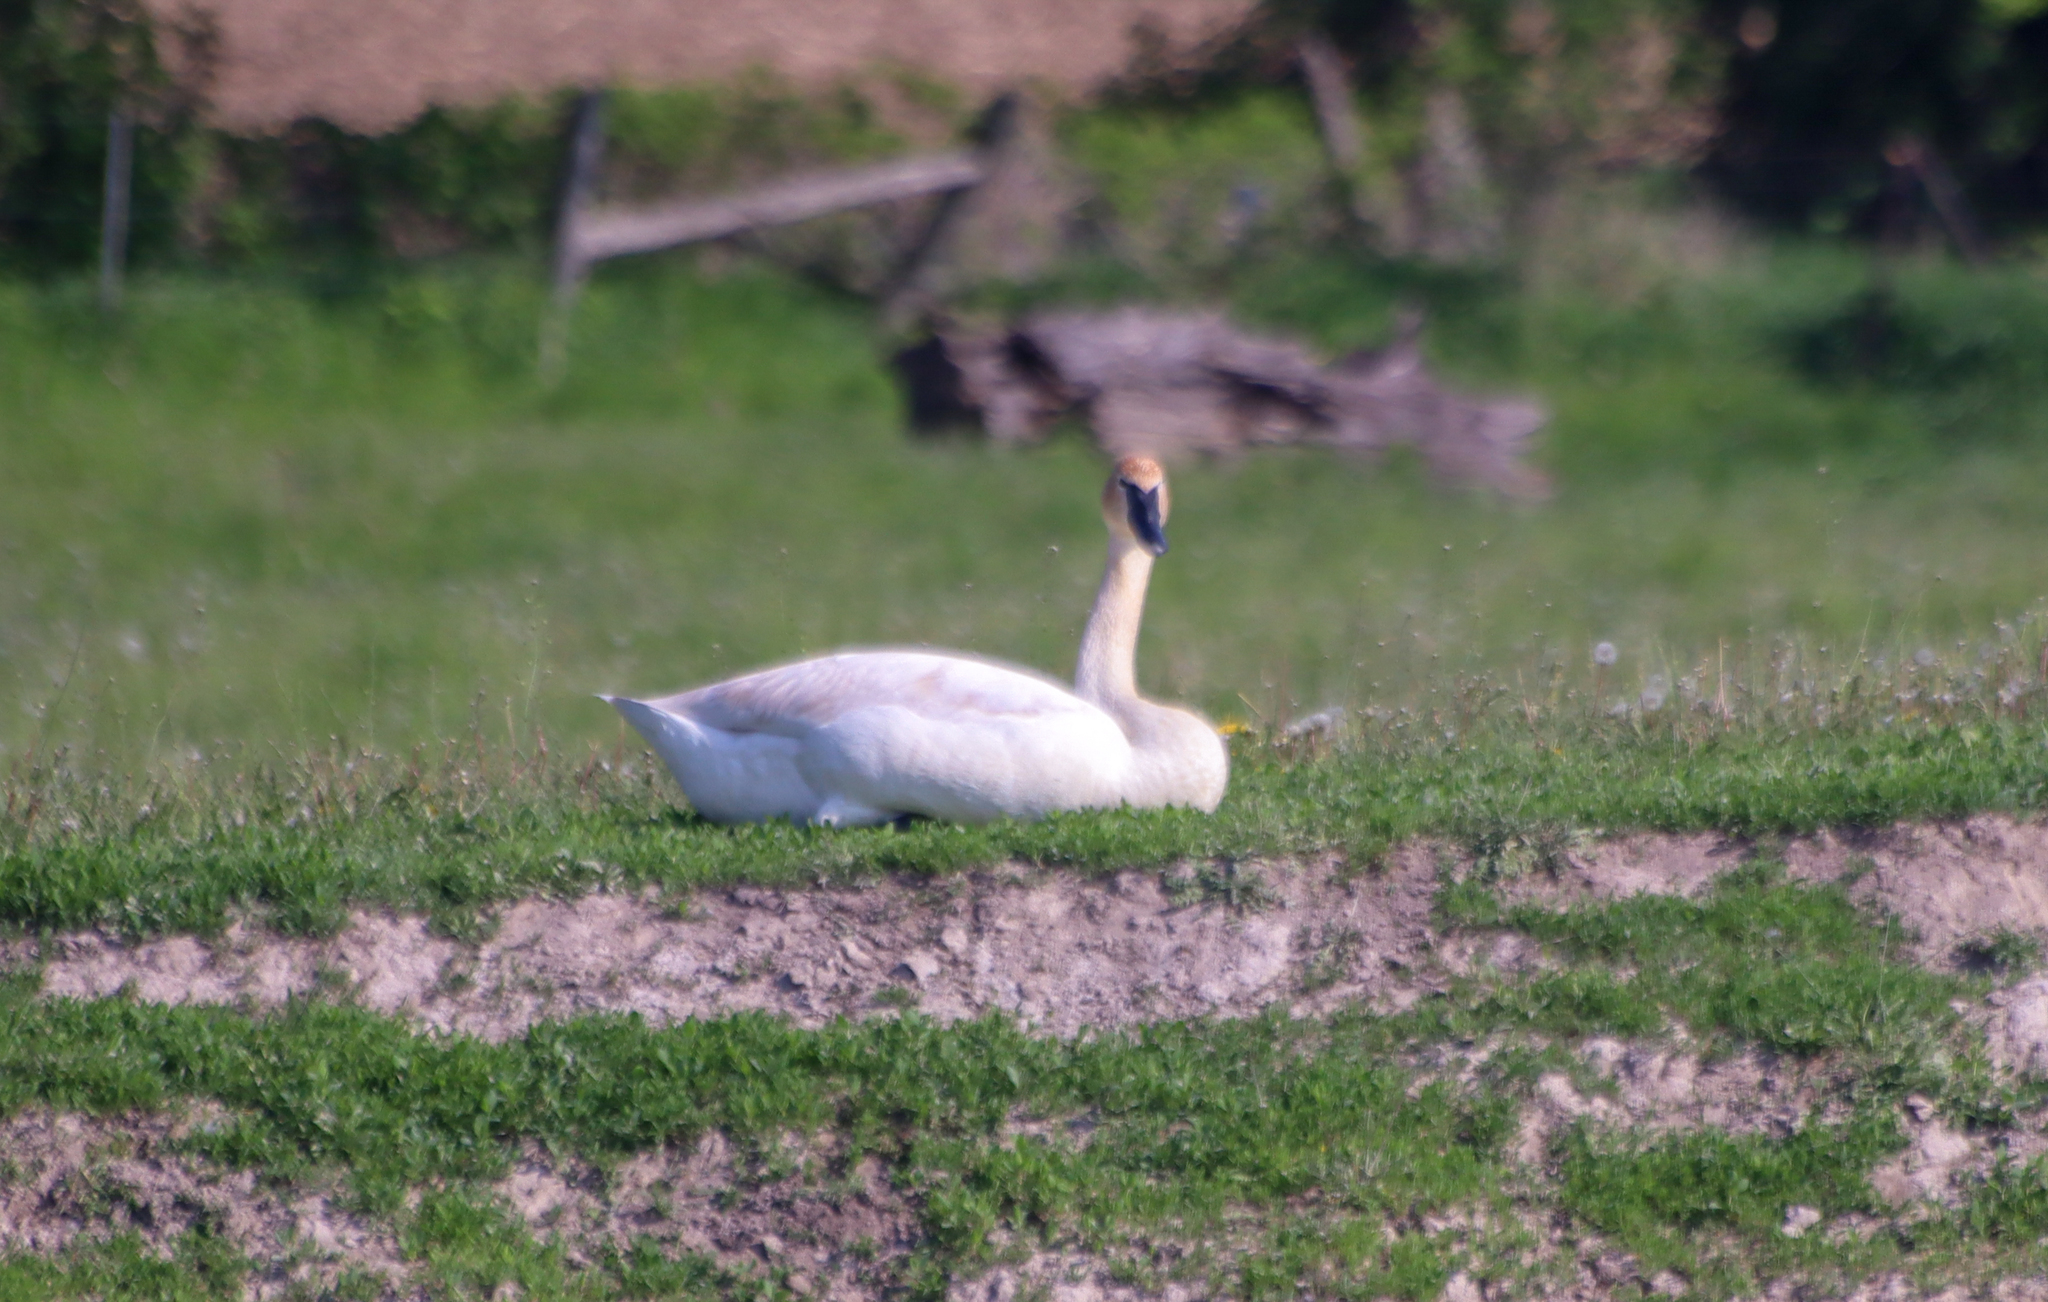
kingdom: Animalia
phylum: Chordata
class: Aves
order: Anseriformes
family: Anatidae
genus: Cygnus
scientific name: Cygnus buccinator
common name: Trumpeter swan
